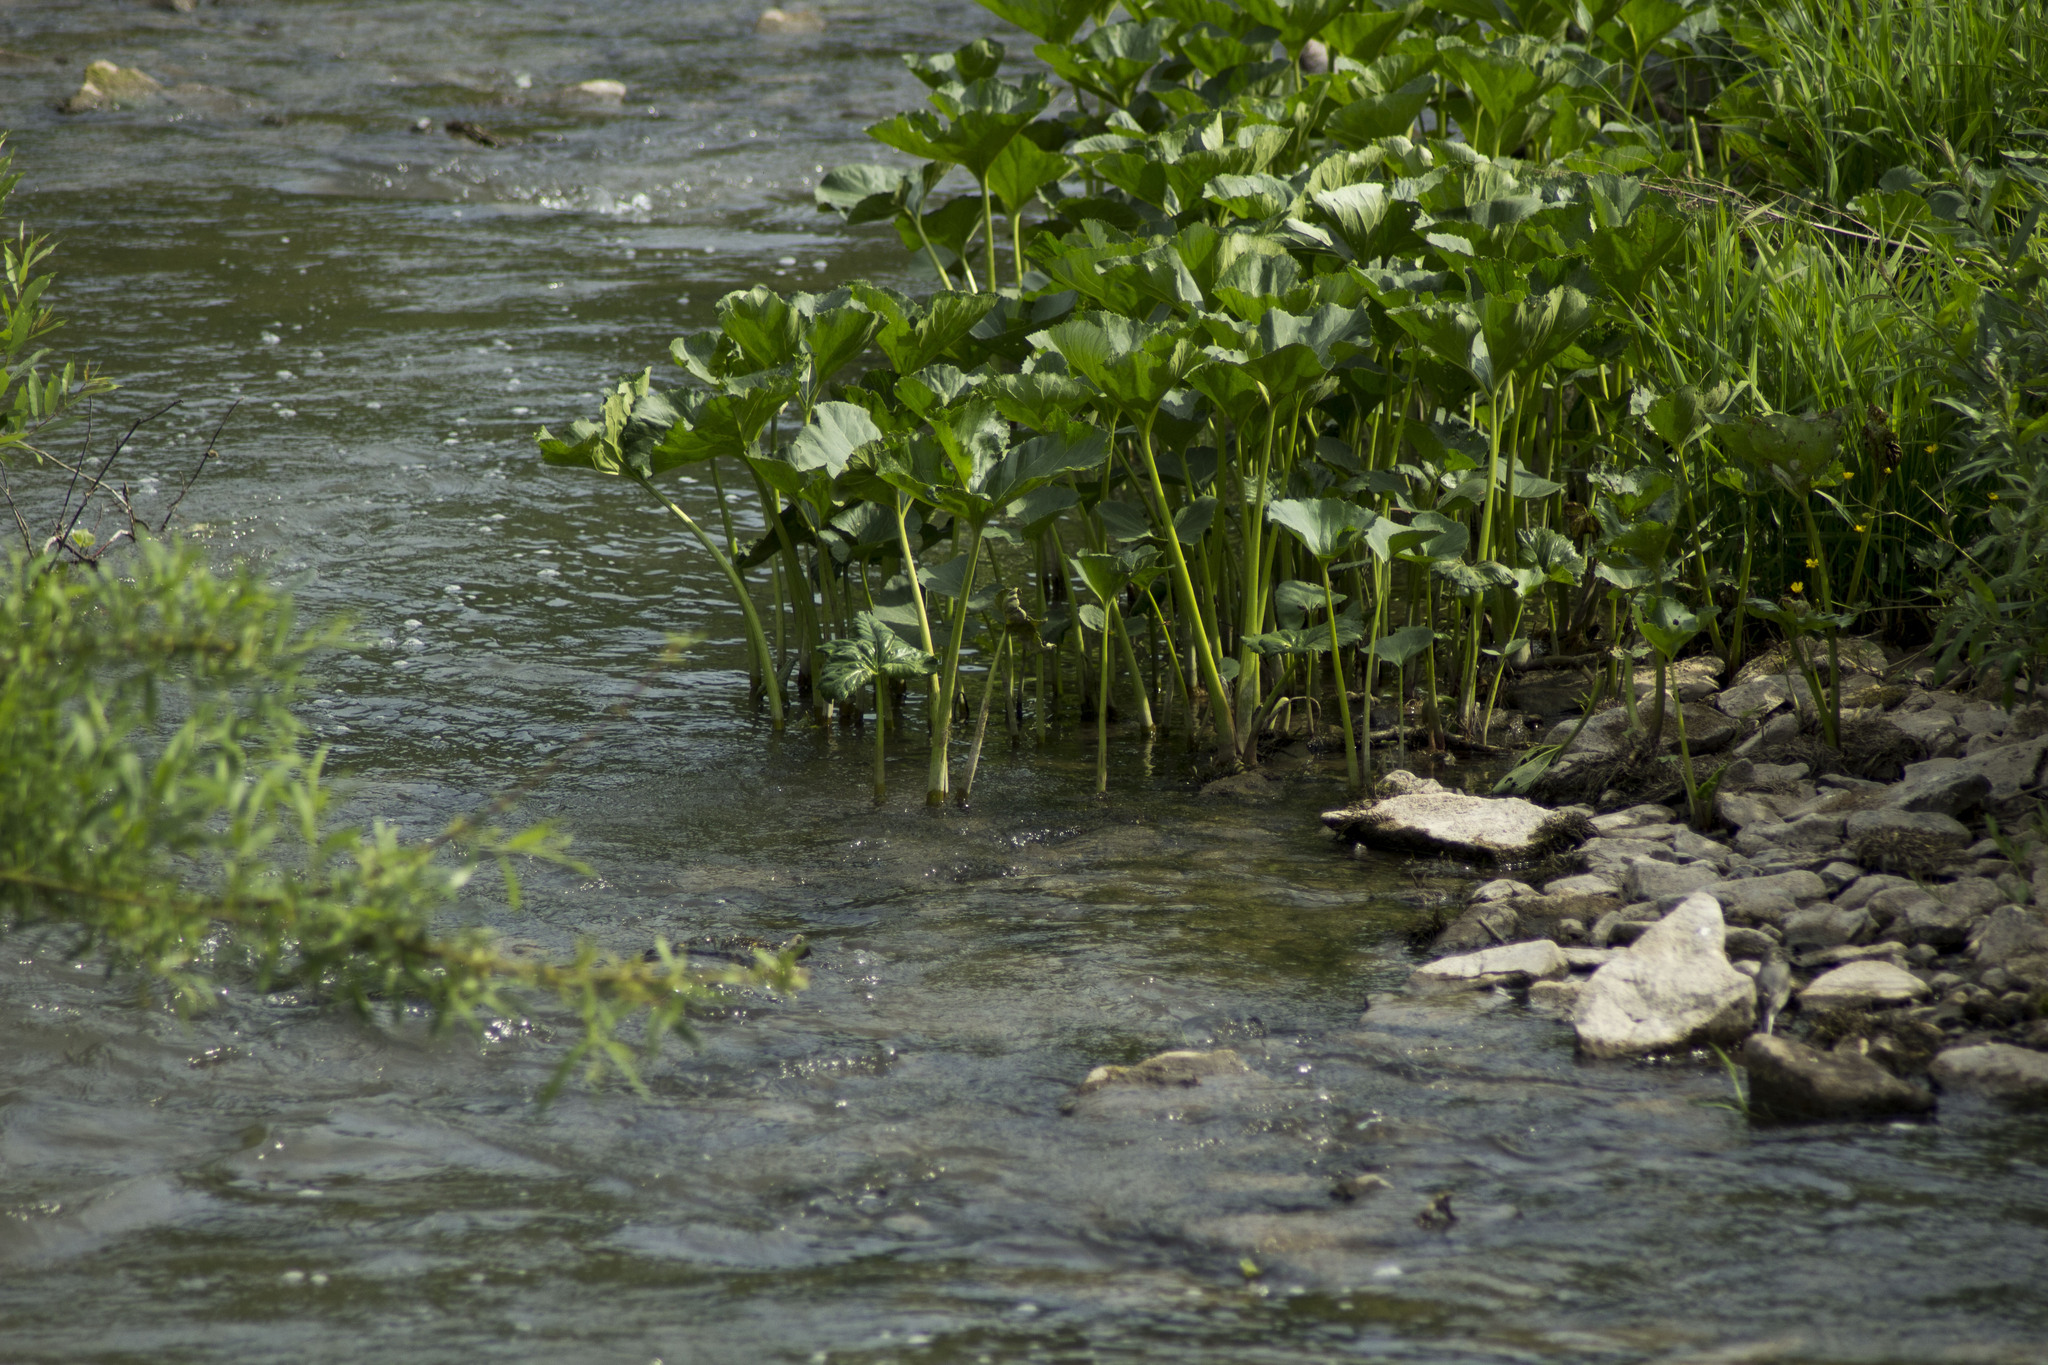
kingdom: Plantae
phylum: Tracheophyta
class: Magnoliopsida
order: Asterales
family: Asteraceae
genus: Petasites
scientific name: Petasites radiatus
